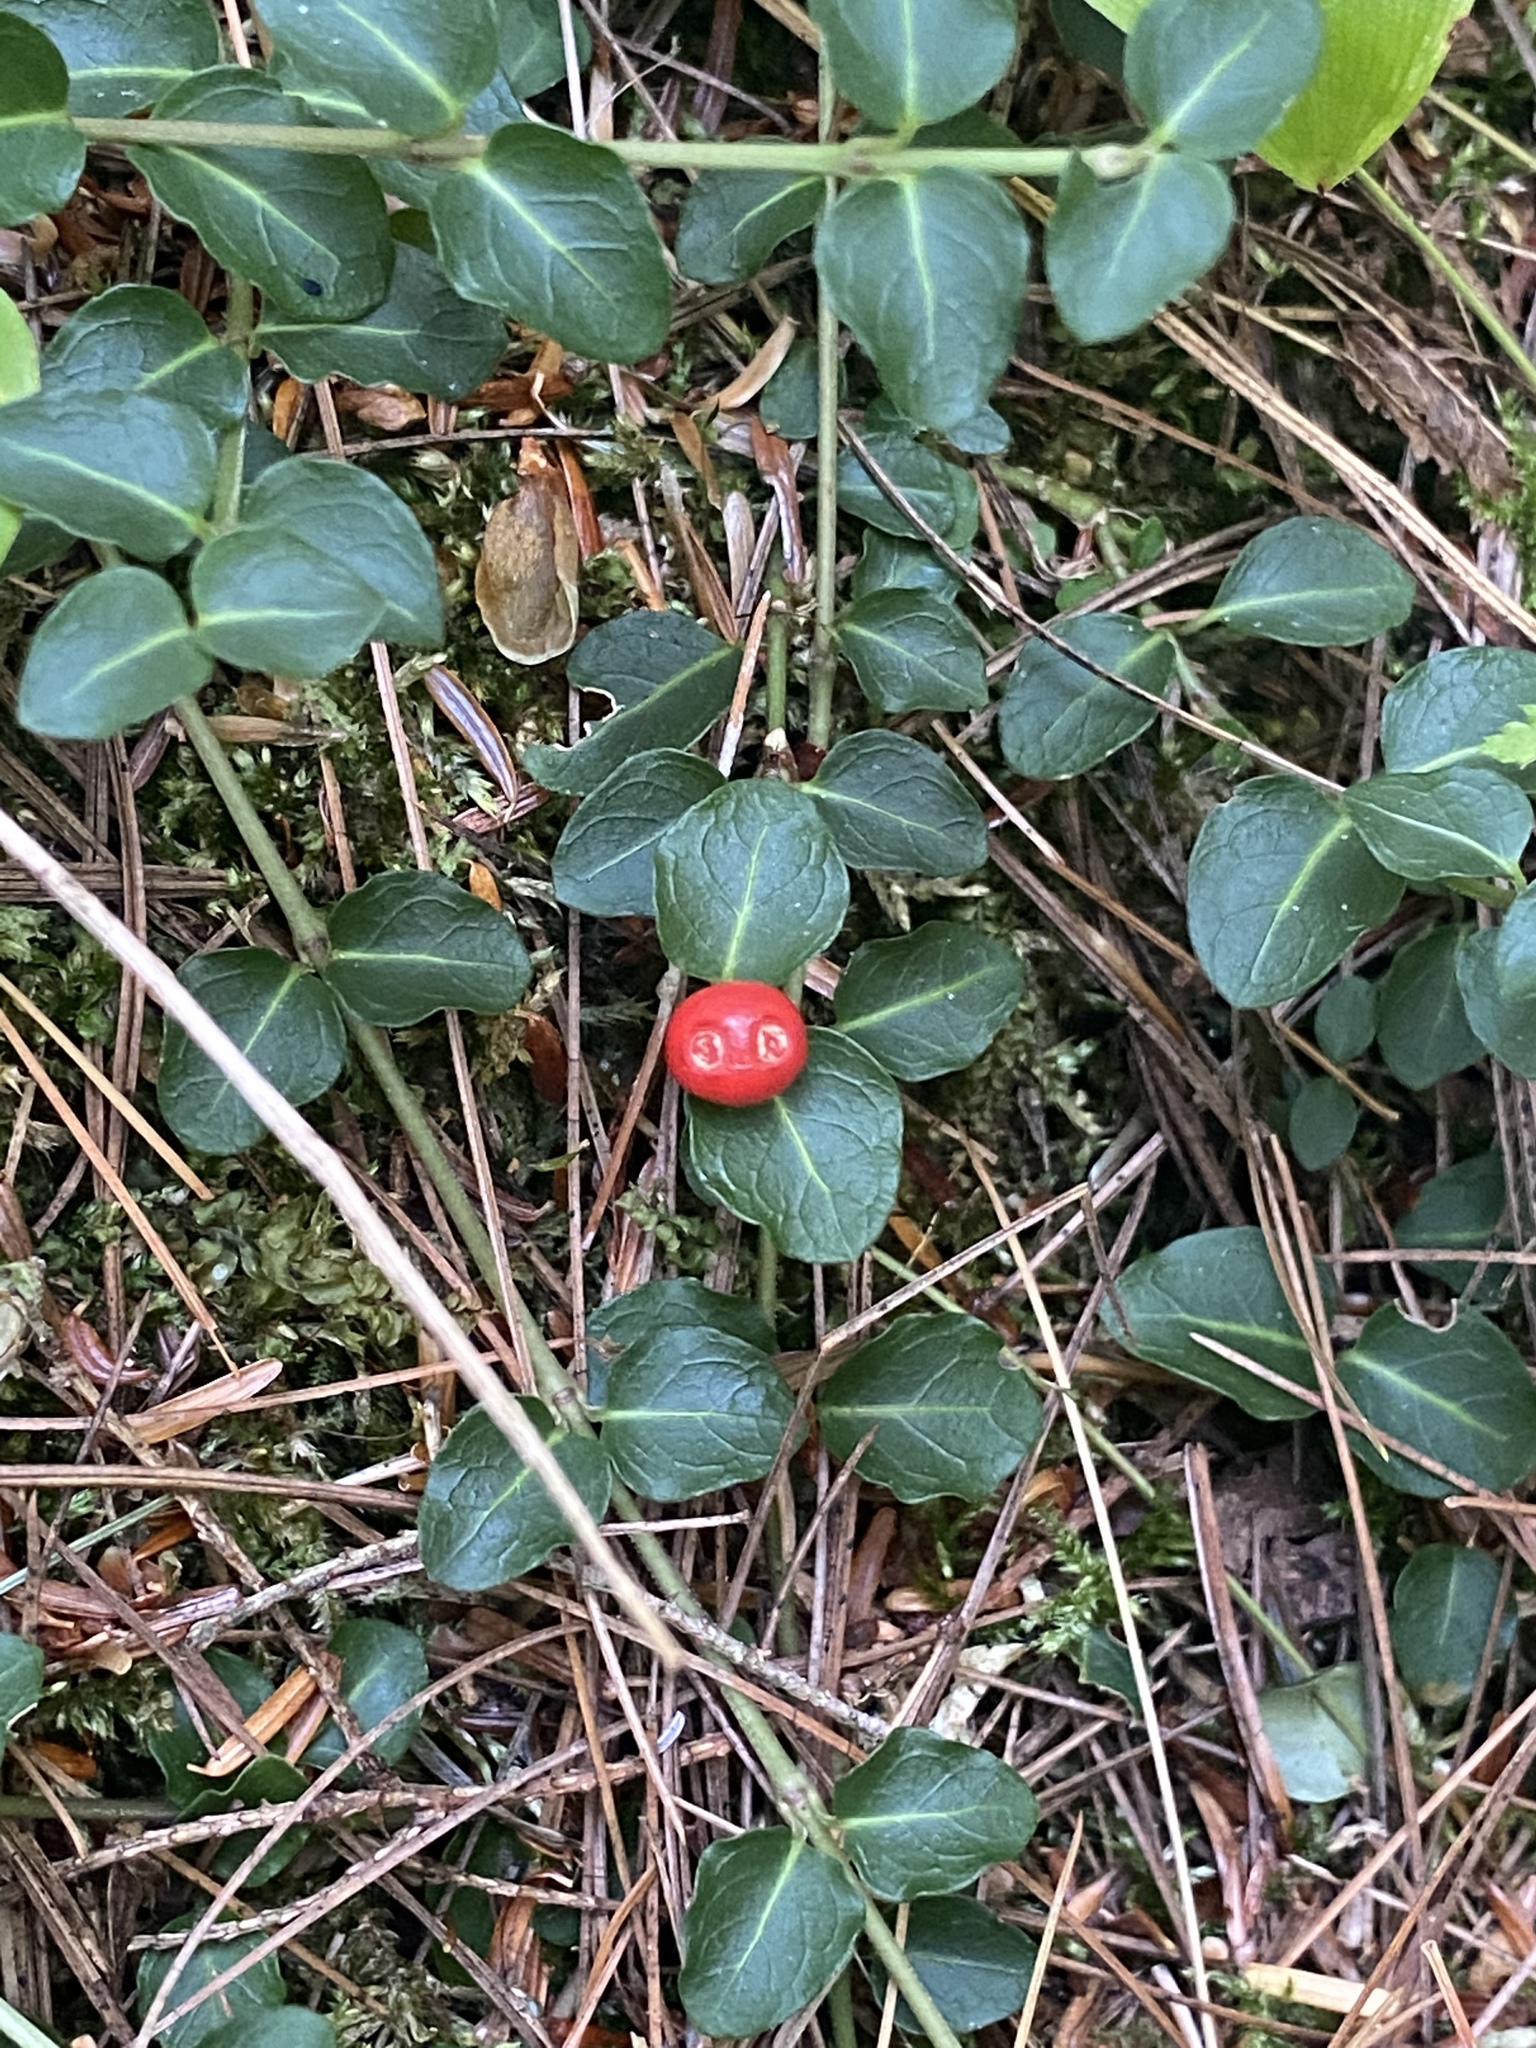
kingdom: Plantae
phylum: Tracheophyta
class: Magnoliopsida
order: Gentianales
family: Rubiaceae
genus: Mitchella
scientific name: Mitchella repens
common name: Partridge-berry
